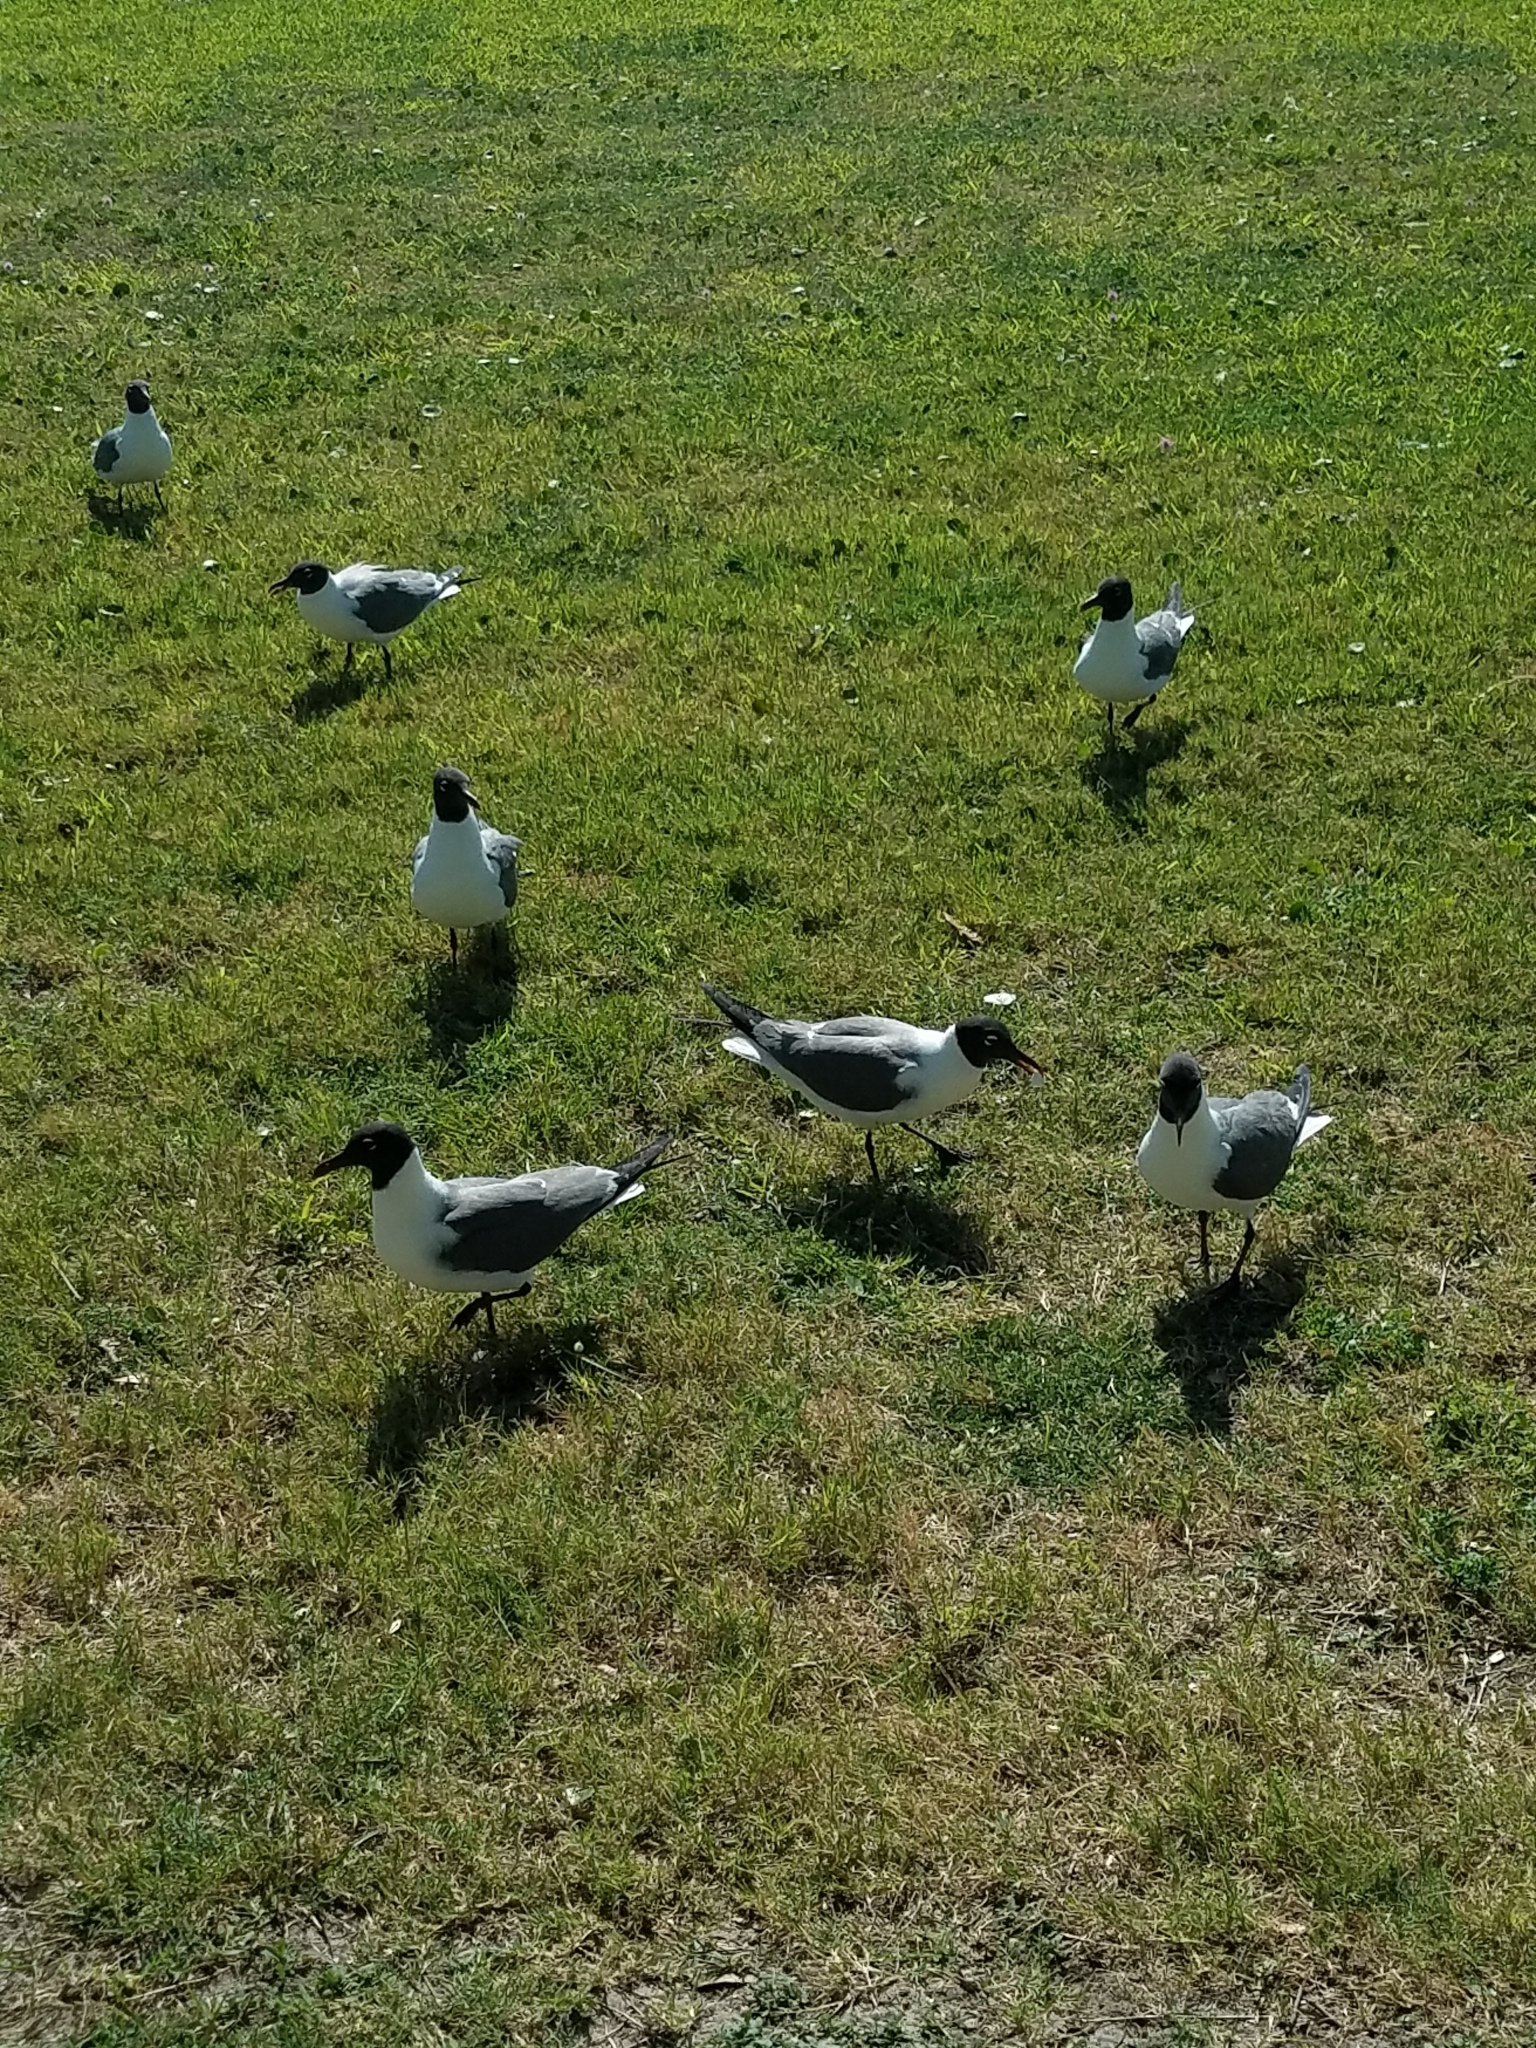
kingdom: Animalia
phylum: Chordata
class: Aves
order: Charadriiformes
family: Laridae
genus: Leucophaeus
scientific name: Leucophaeus atricilla
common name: Laughing gull
